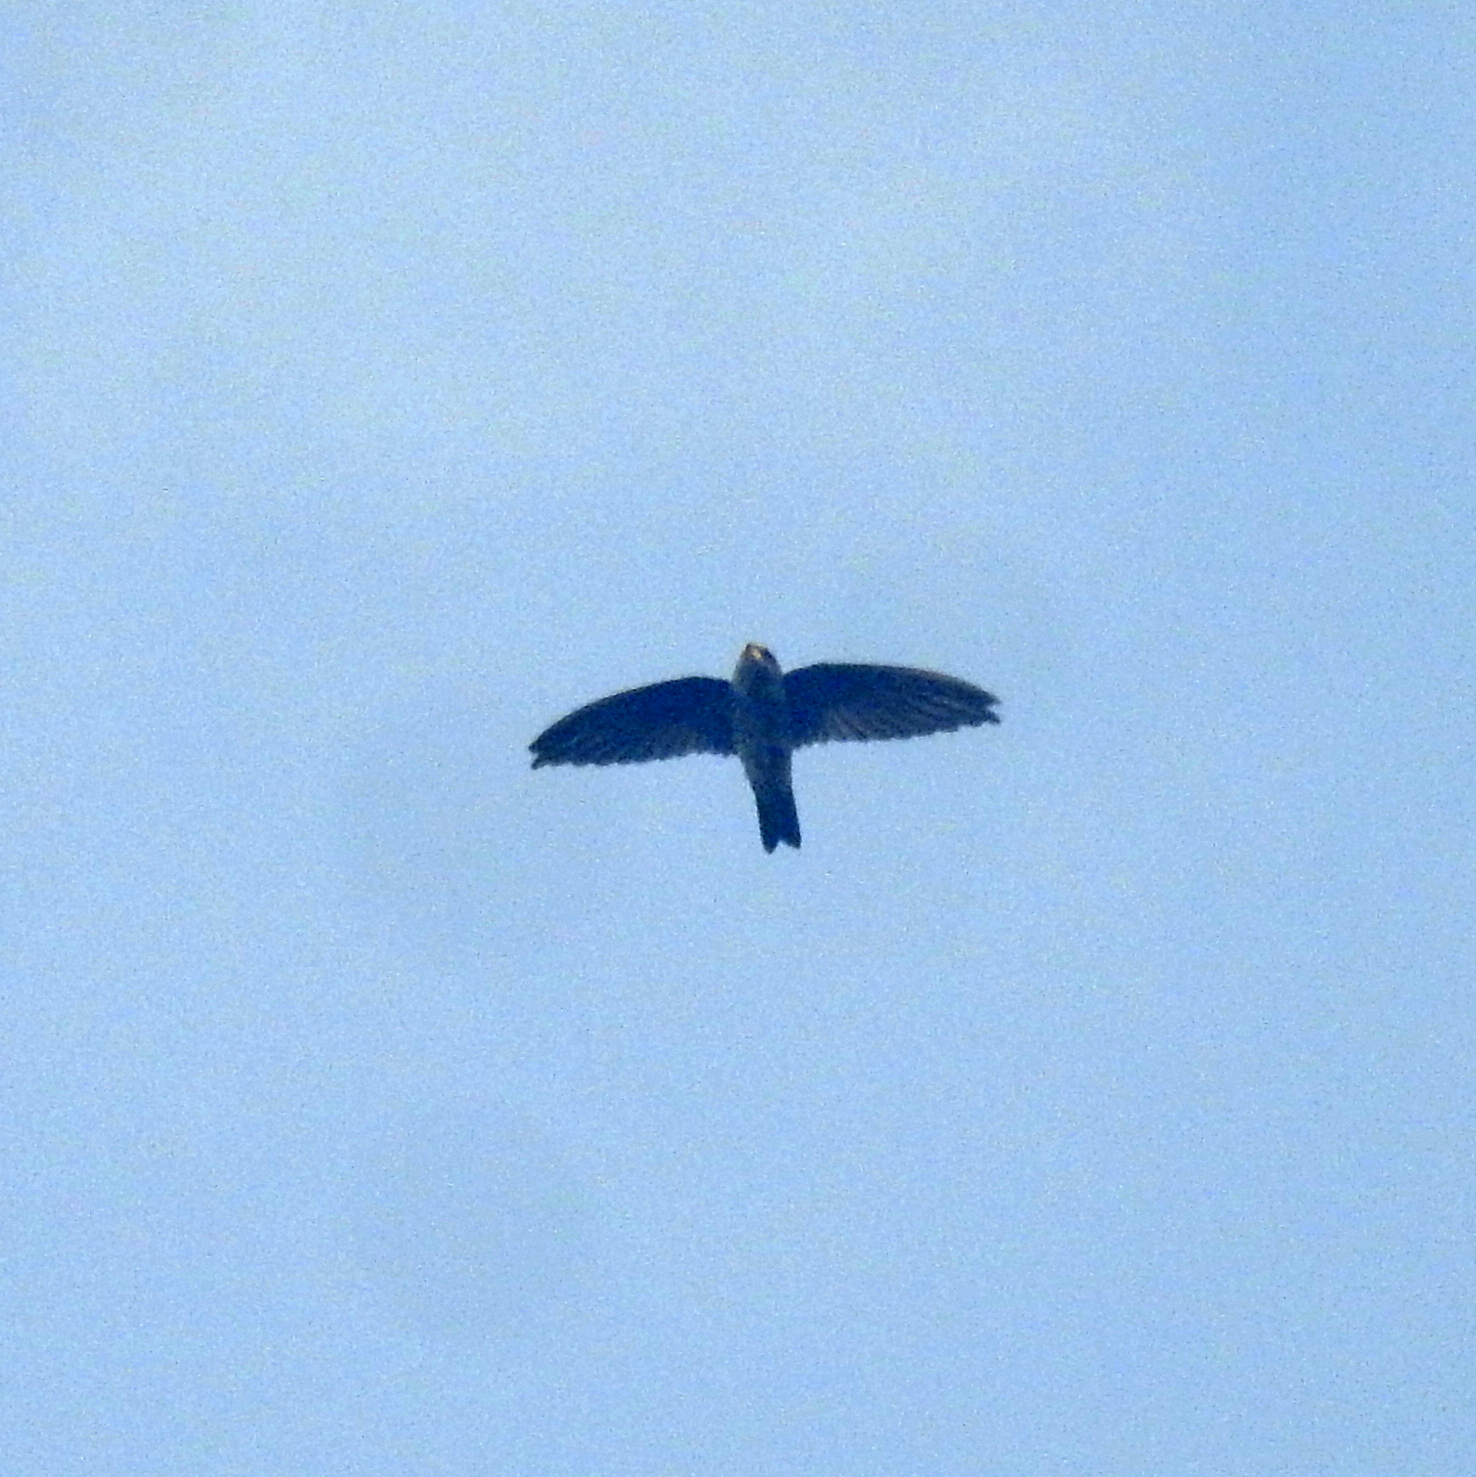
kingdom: Animalia
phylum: Chordata
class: Aves
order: Apodiformes
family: Apodidae
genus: Aerodramus
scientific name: Aerodramus
